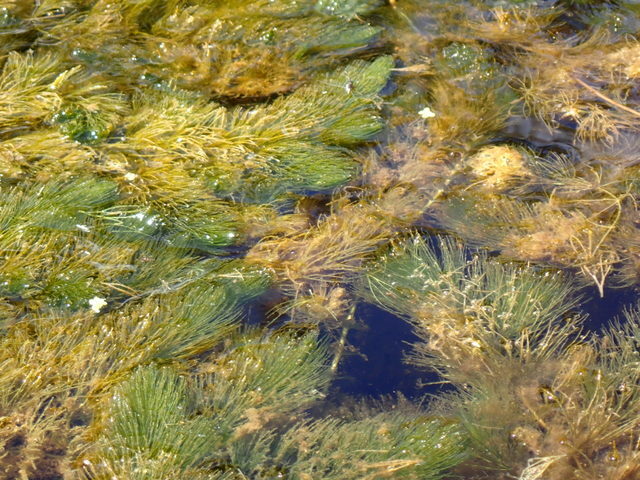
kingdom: Plantae
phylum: Tracheophyta
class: Magnoliopsida
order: Ceratophyllales
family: Ceratophyllaceae
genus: Ceratophyllum
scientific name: Ceratophyllum demersum
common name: Rigid hornwort
